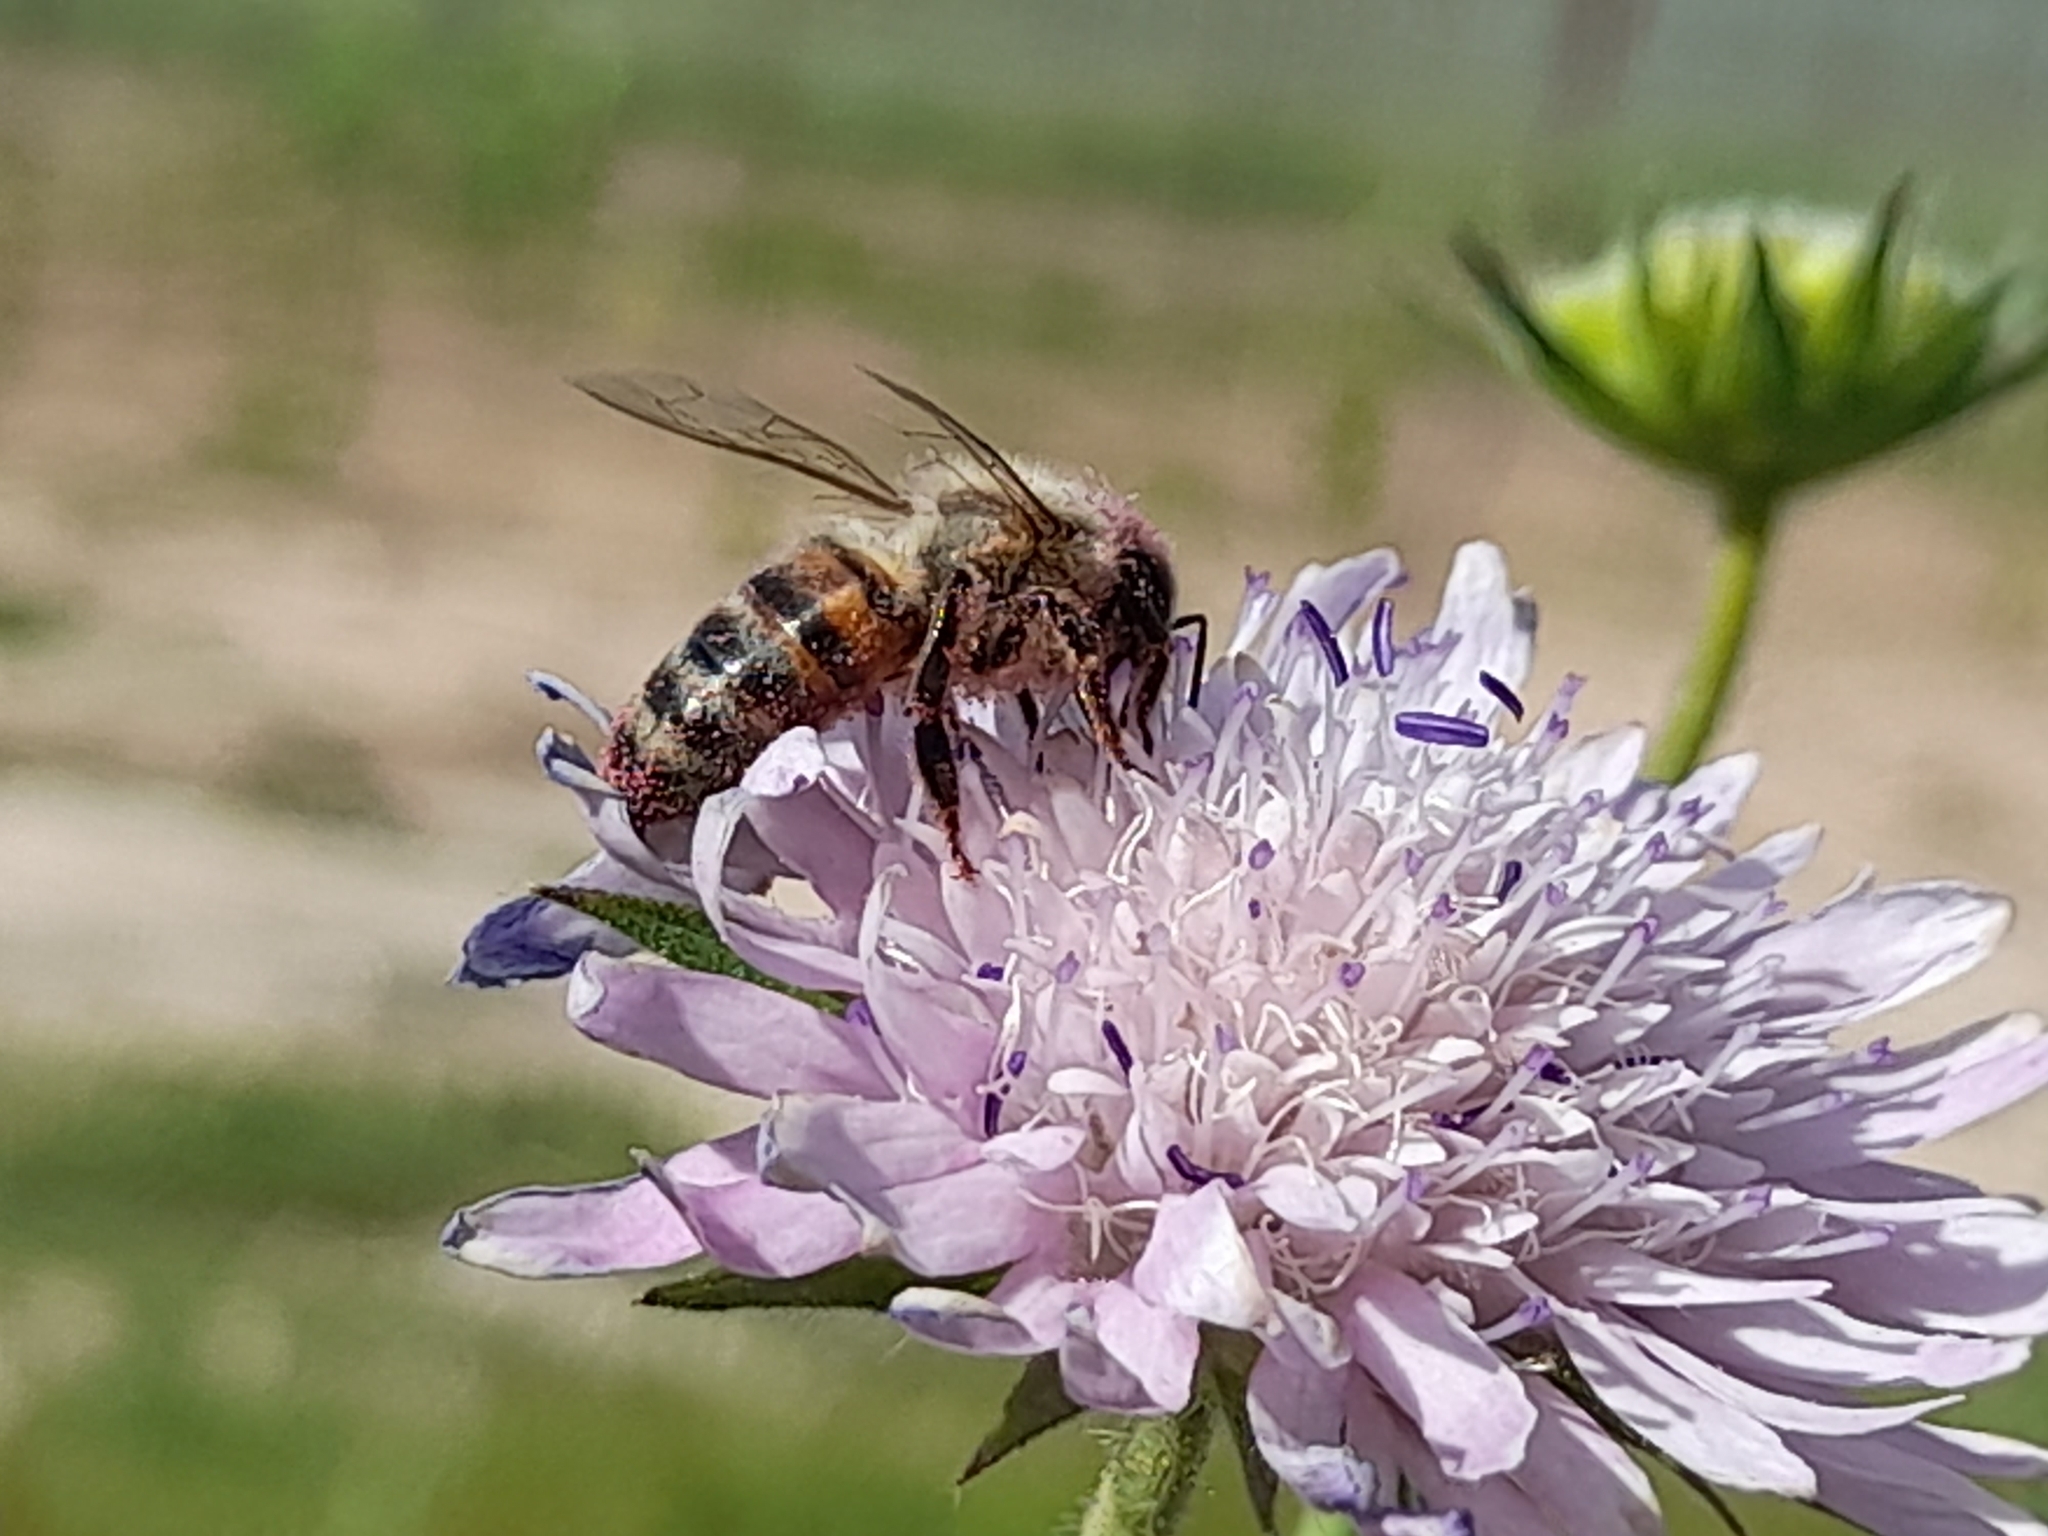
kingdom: Animalia
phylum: Arthropoda
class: Insecta
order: Hymenoptera
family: Apidae
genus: Apis
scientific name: Apis mellifera
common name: Honey bee
